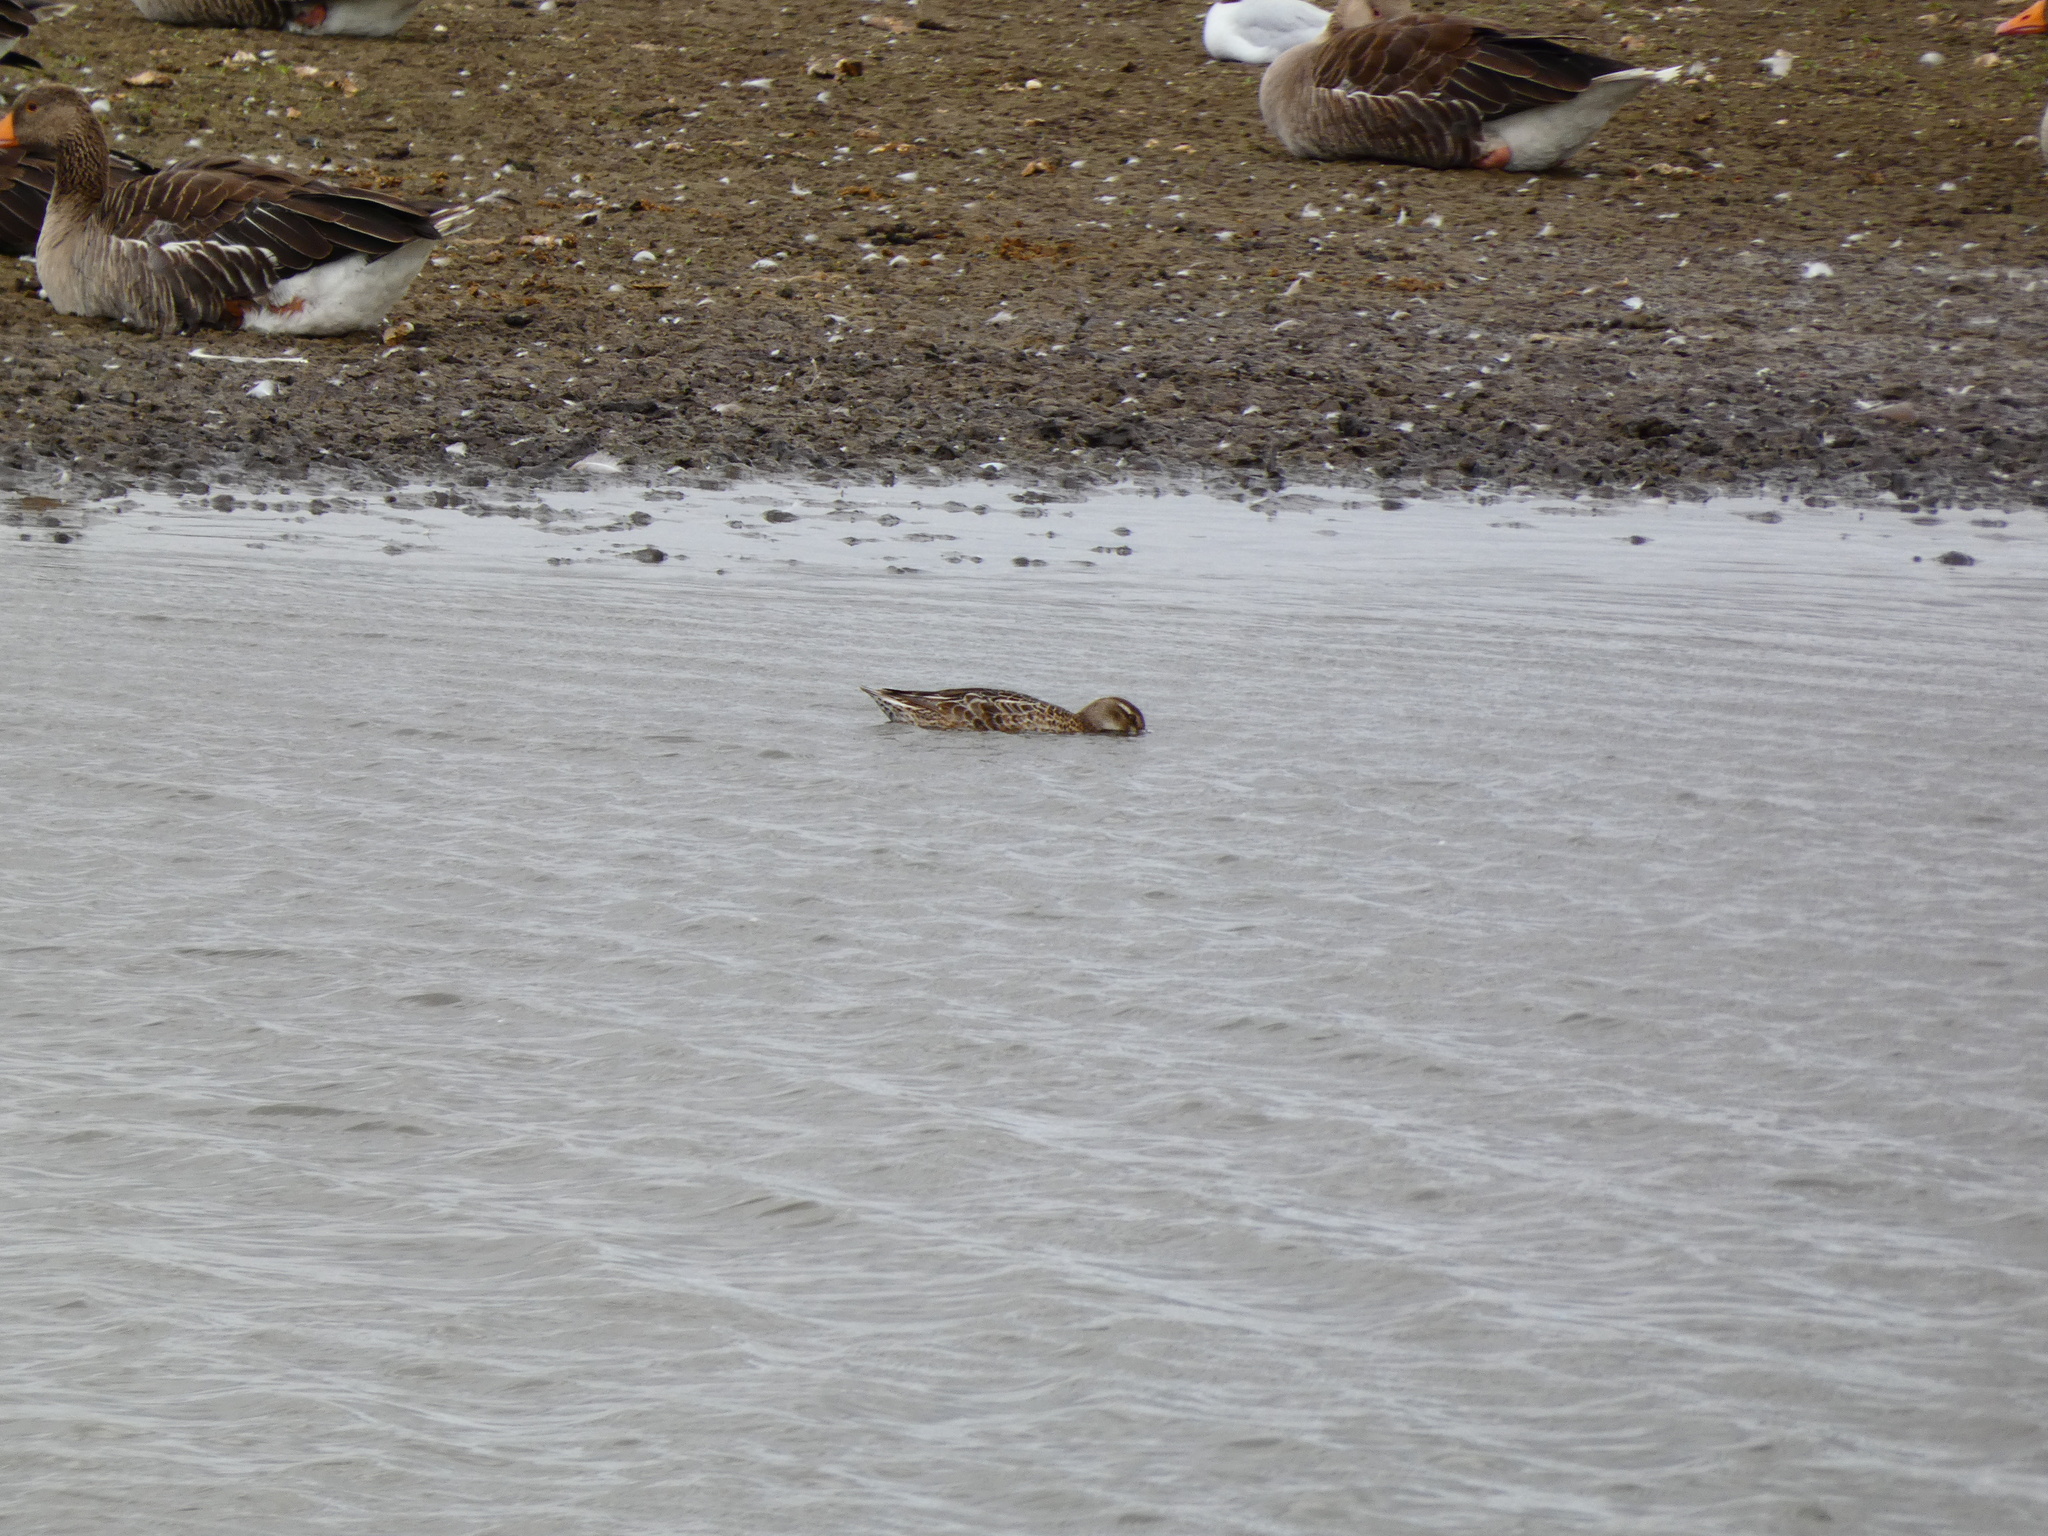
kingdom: Animalia
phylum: Chordata
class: Aves
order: Anseriformes
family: Anatidae
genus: Spatula
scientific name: Spatula querquedula
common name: Garganey
